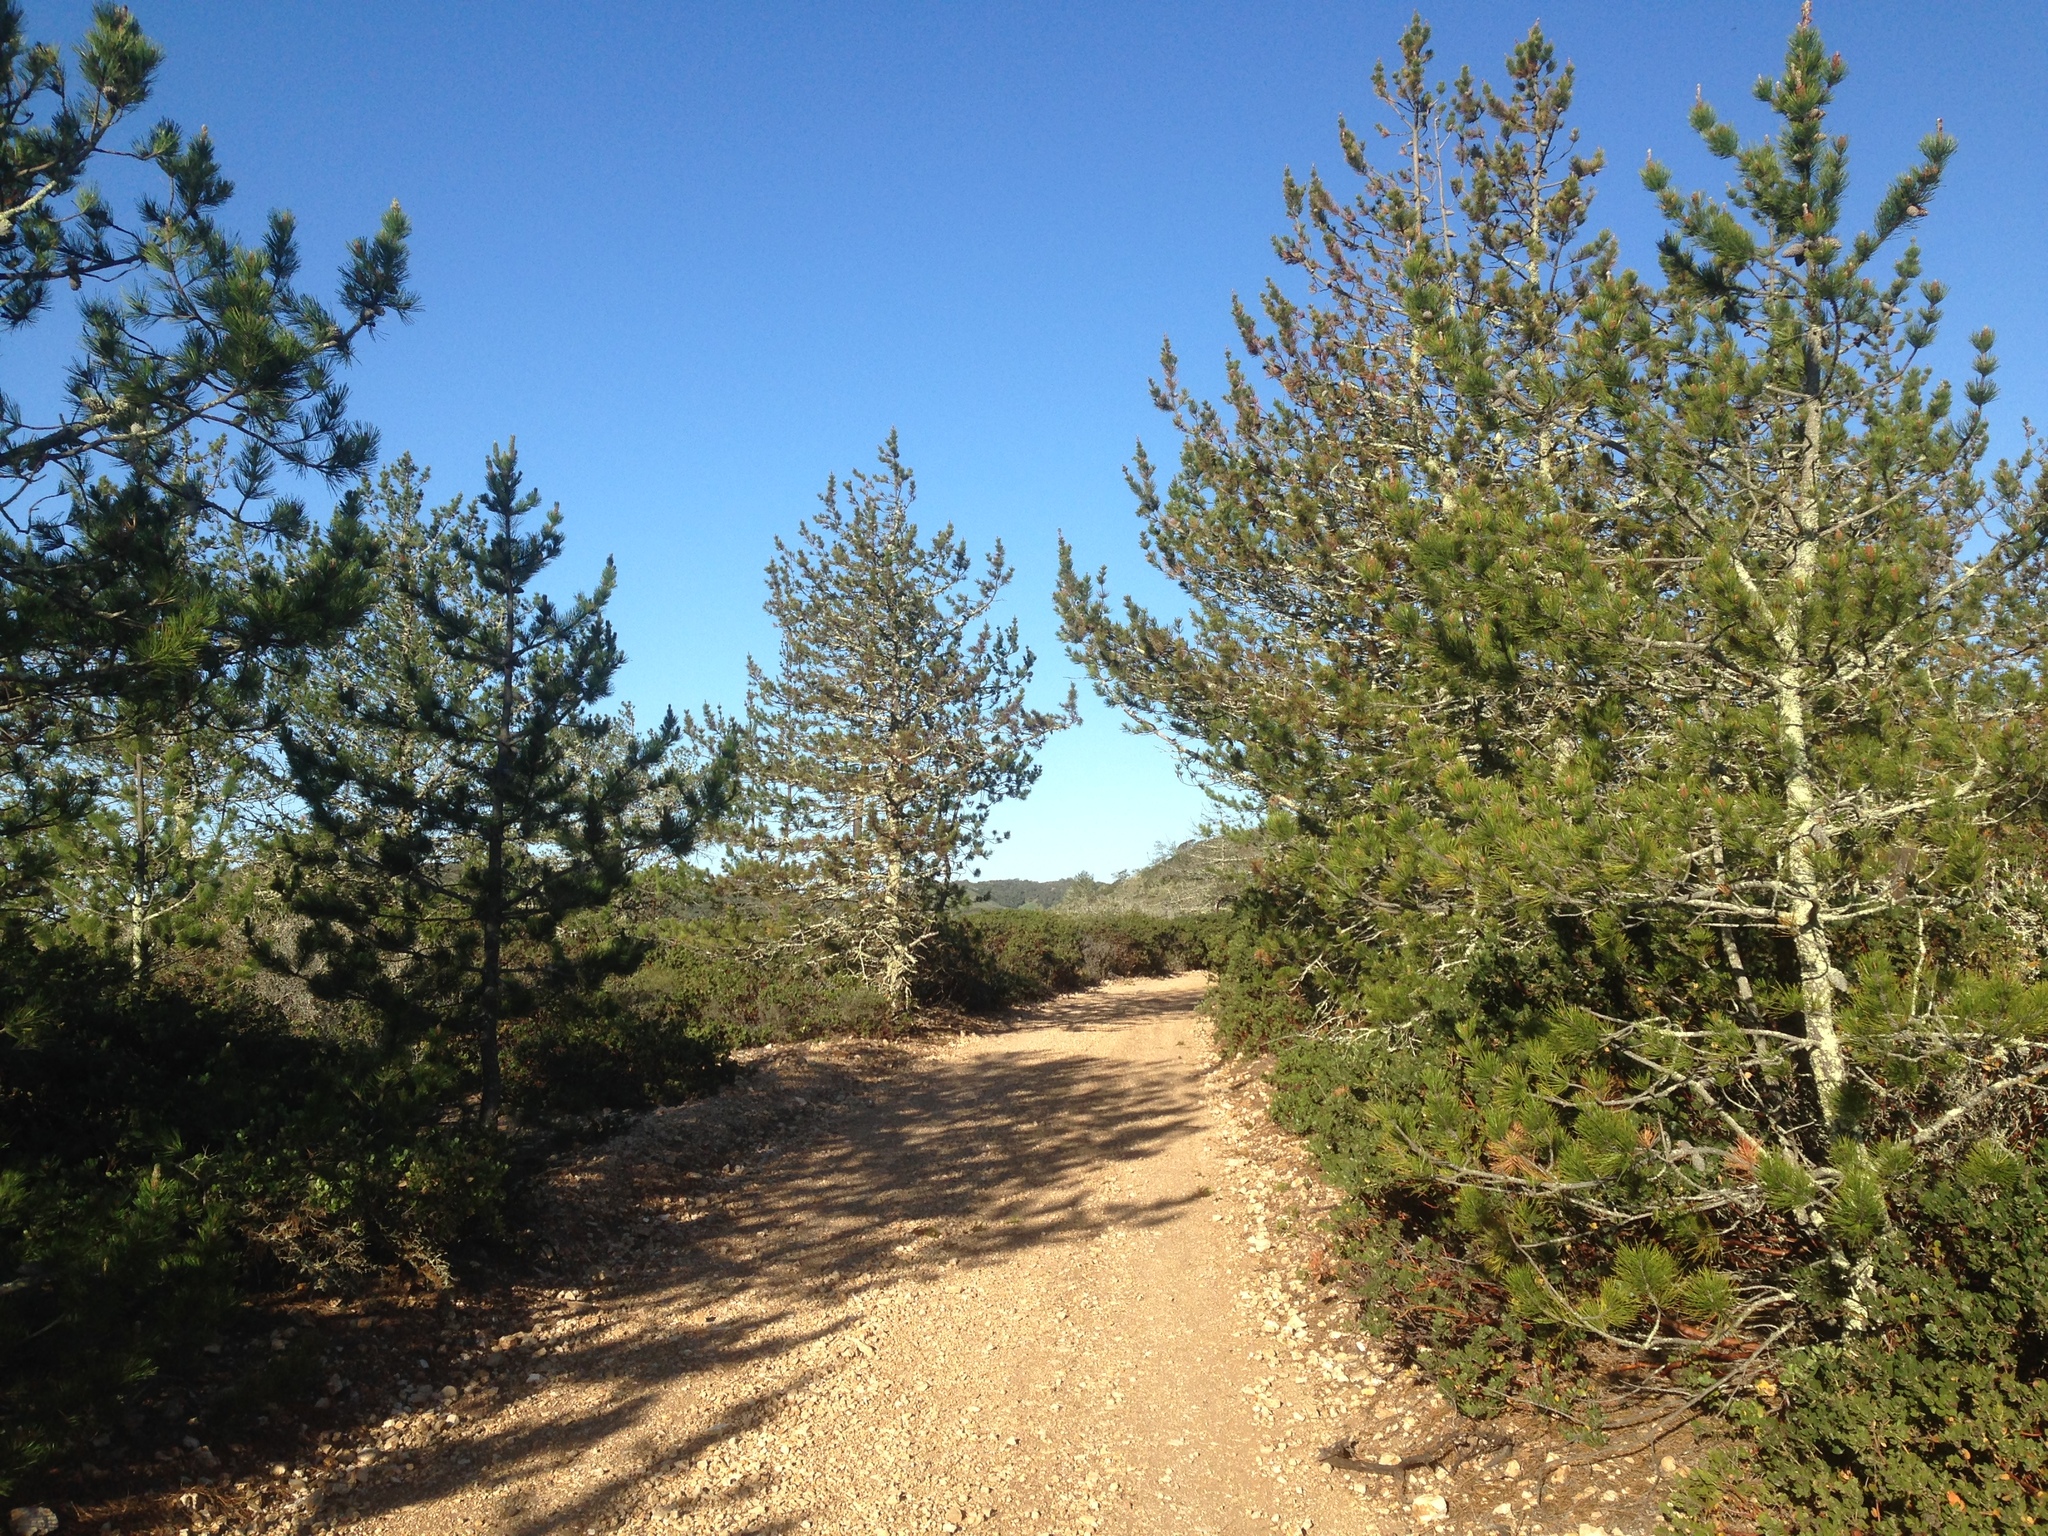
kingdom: Plantae
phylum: Tracheophyta
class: Pinopsida
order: Pinales
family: Pinaceae
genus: Pinus
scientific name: Pinus muricata
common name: Bishop pine
